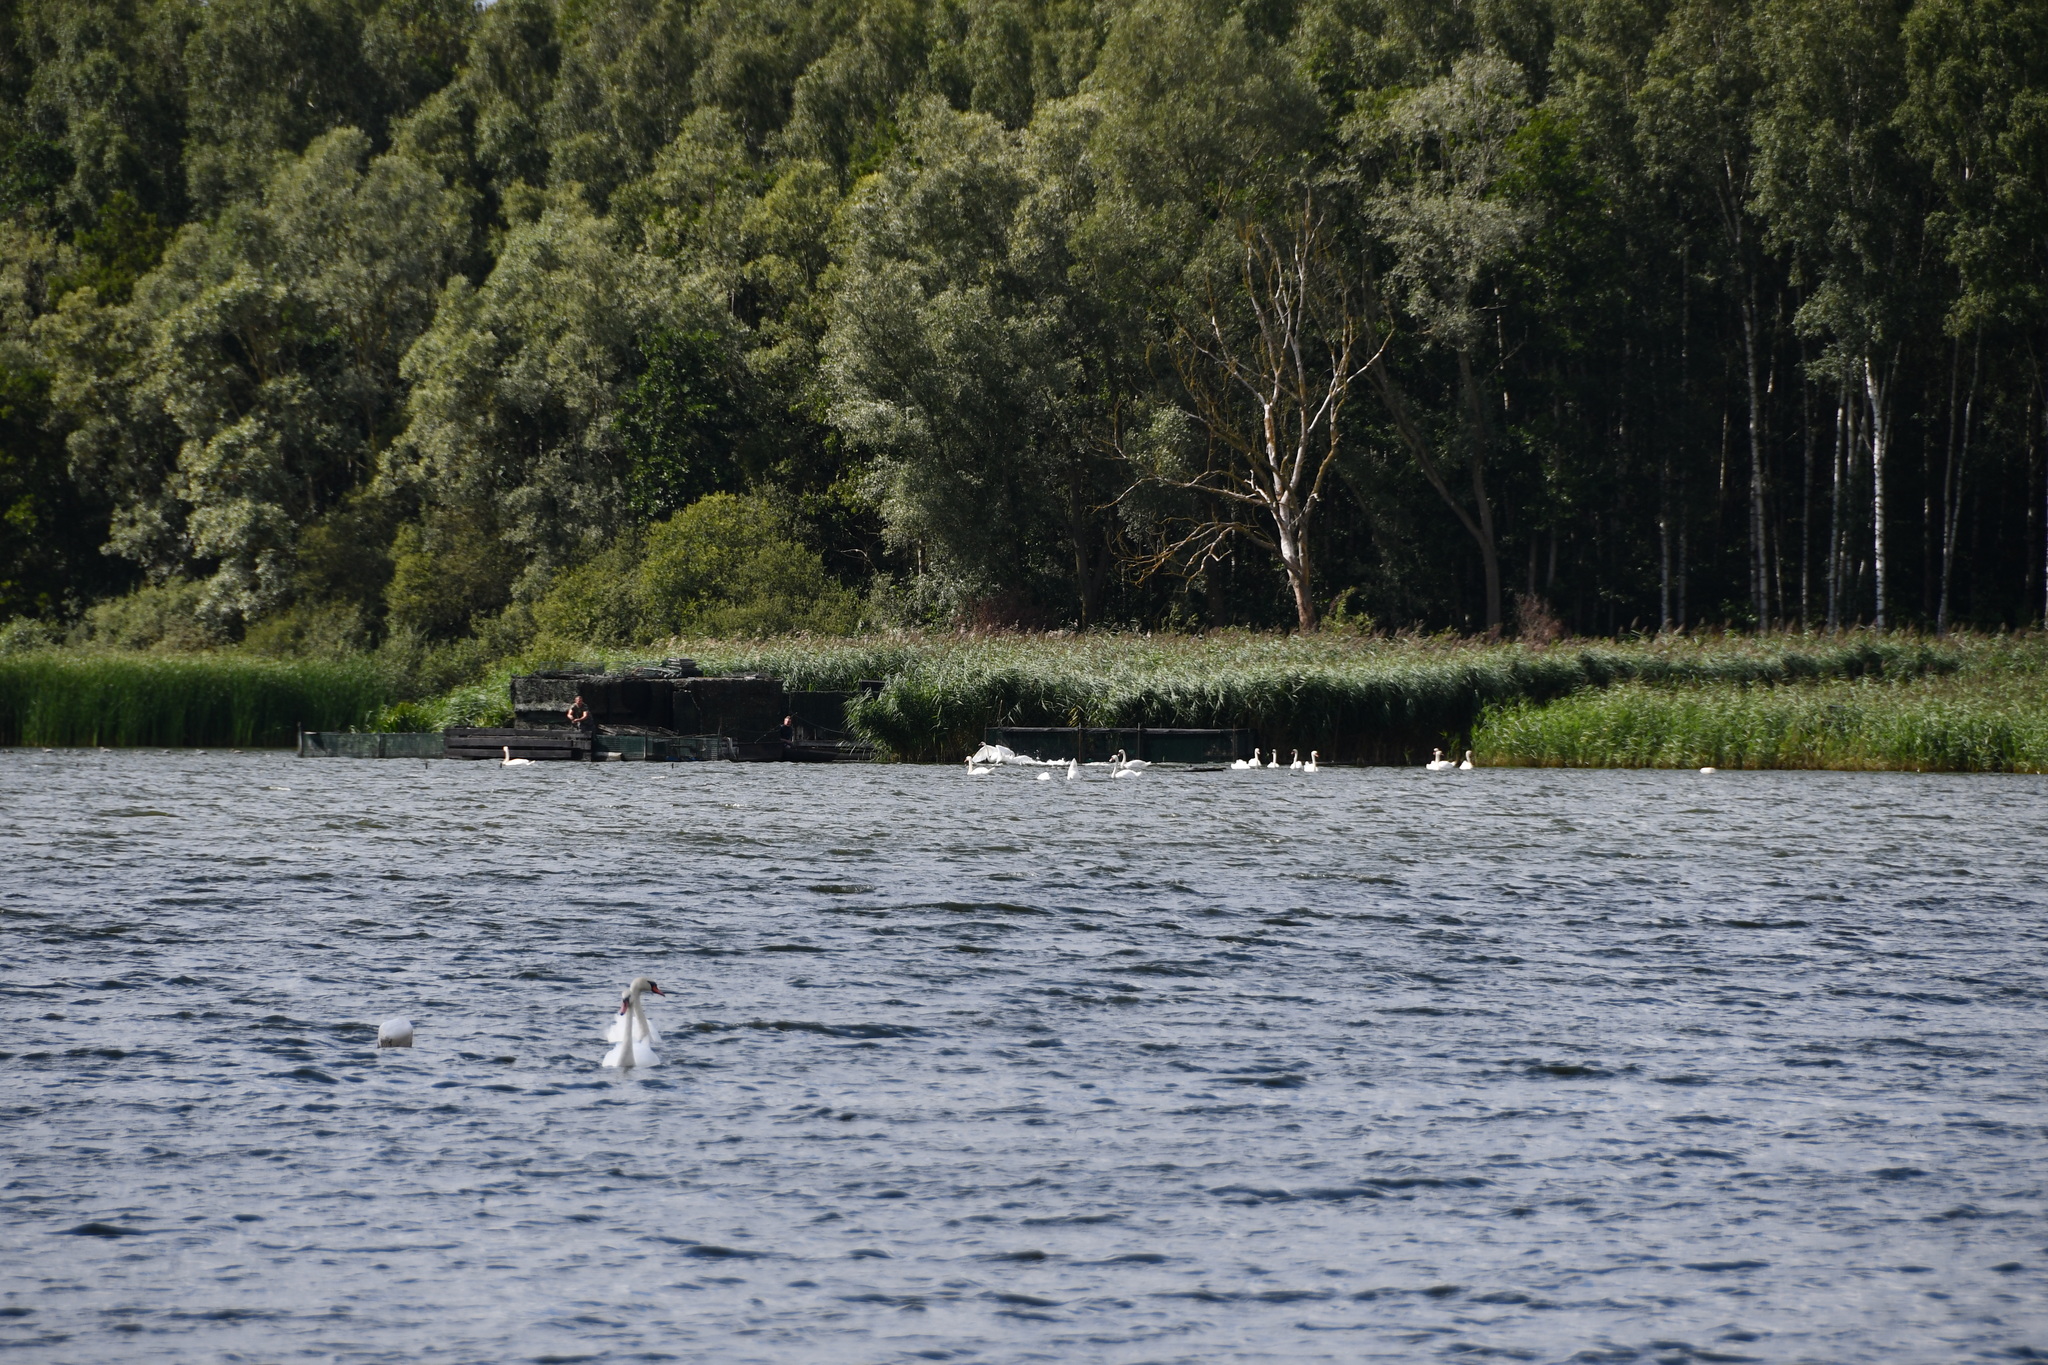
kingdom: Animalia
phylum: Chordata
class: Aves
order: Anseriformes
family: Anatidae
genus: Cygnus
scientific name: Cygnus olor
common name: Mute swan
